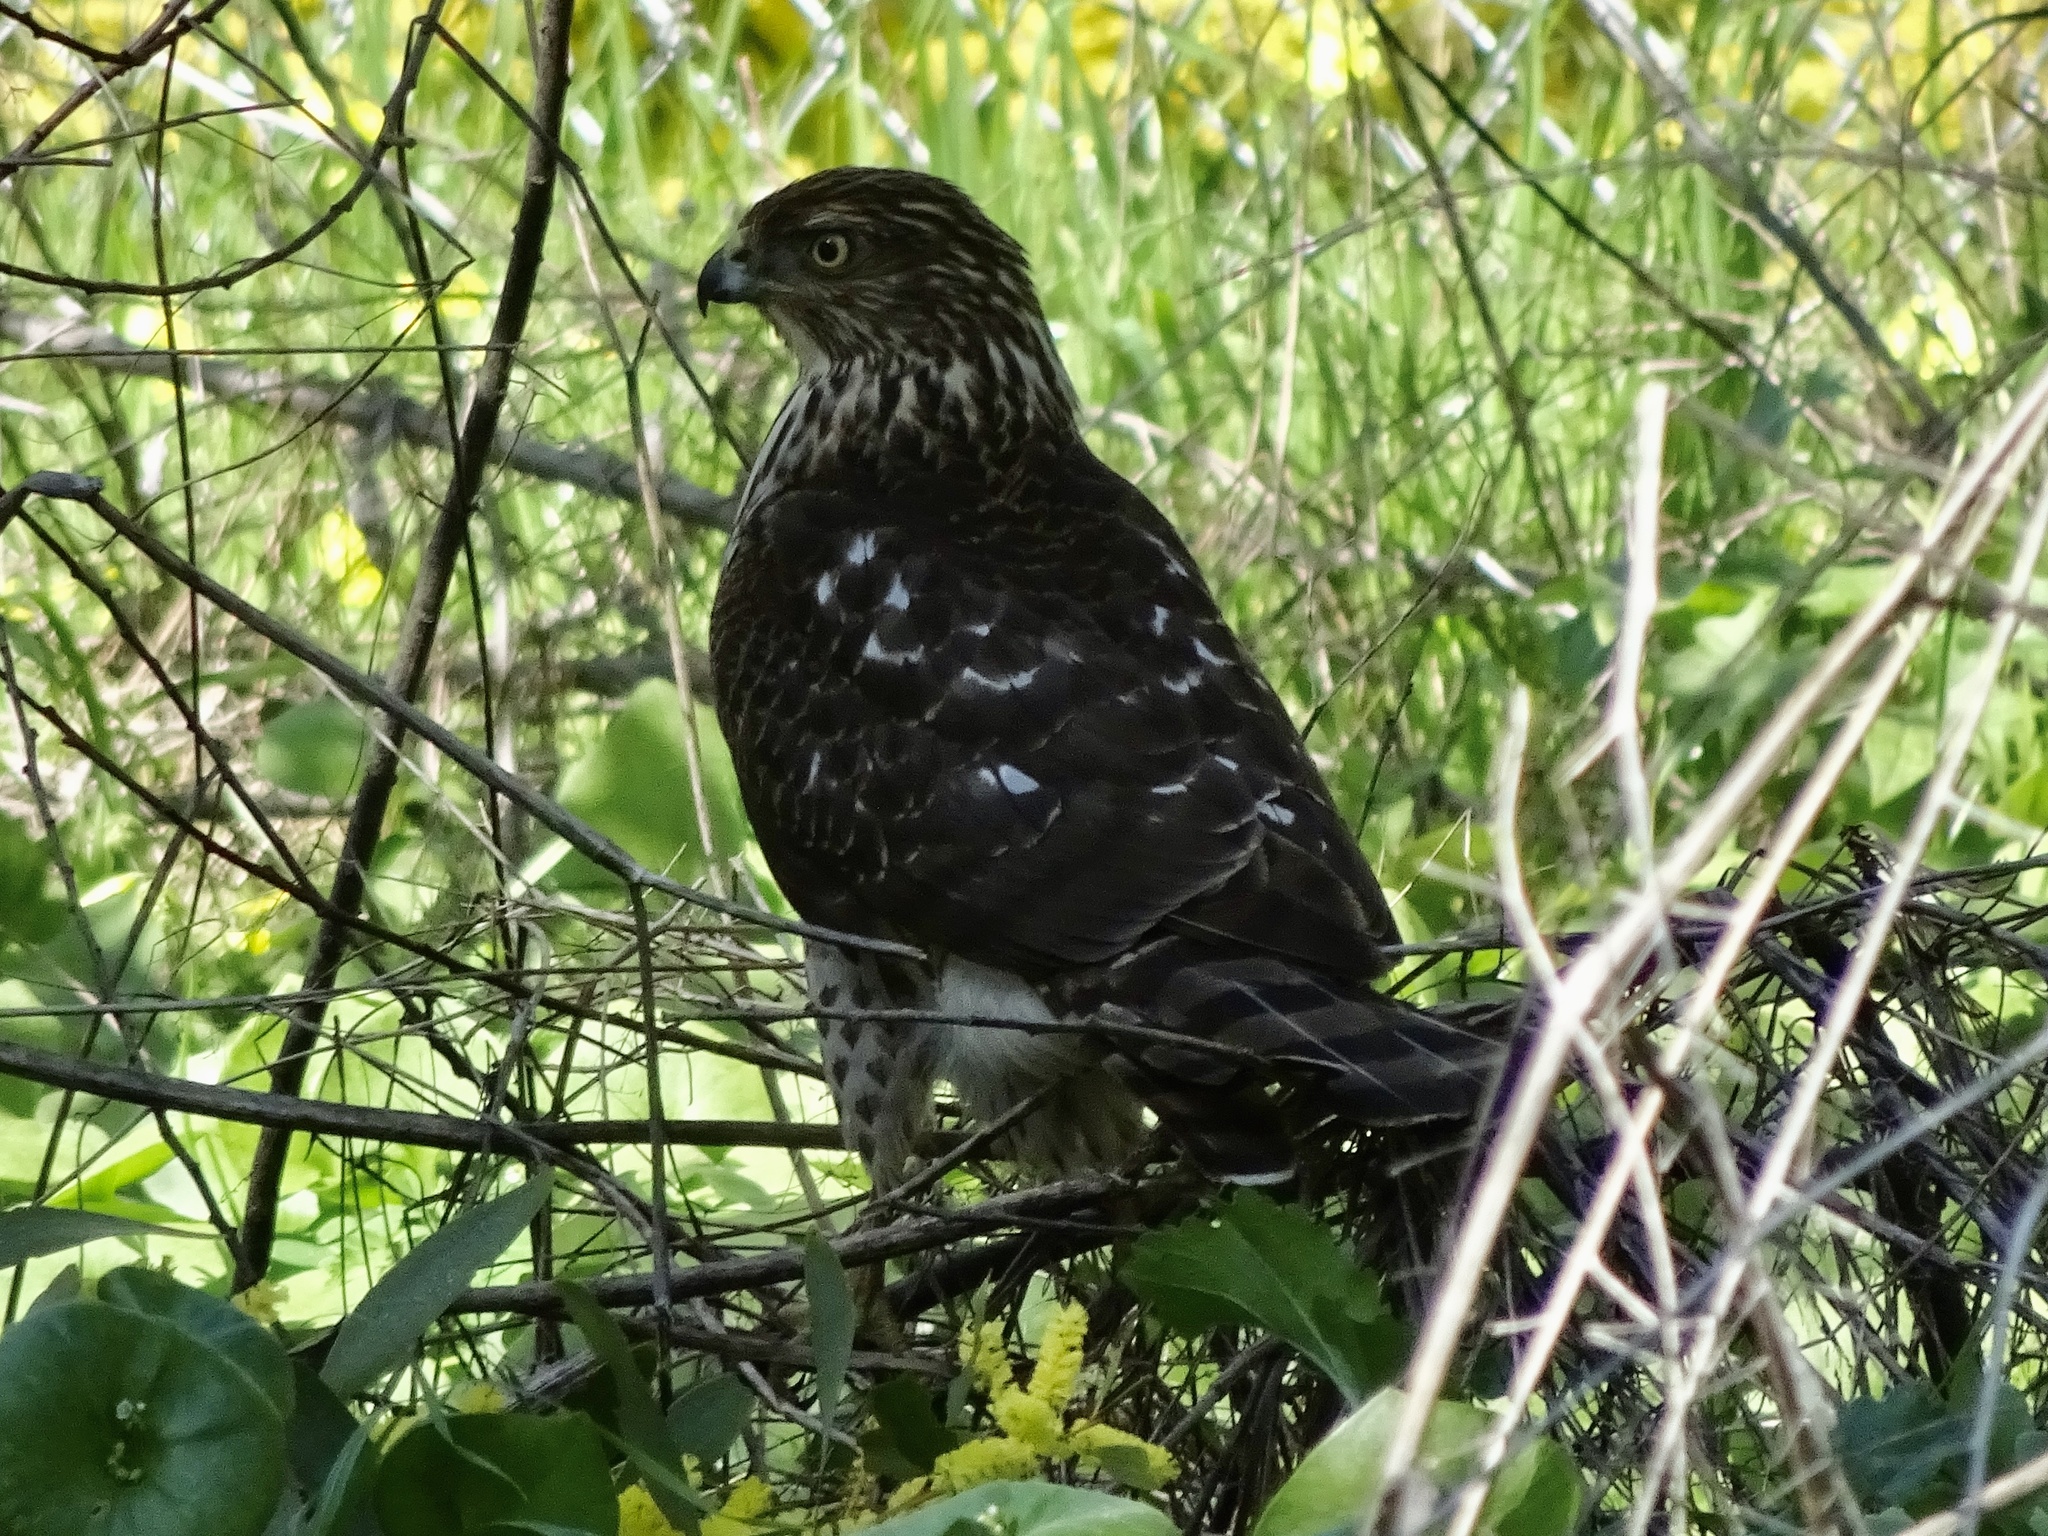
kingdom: Animalia
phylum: Chordata
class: Aves
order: Accipitriformes
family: Accipitridae
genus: Accipiter
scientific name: Accipiter cooperii
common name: Cooper's hawk
